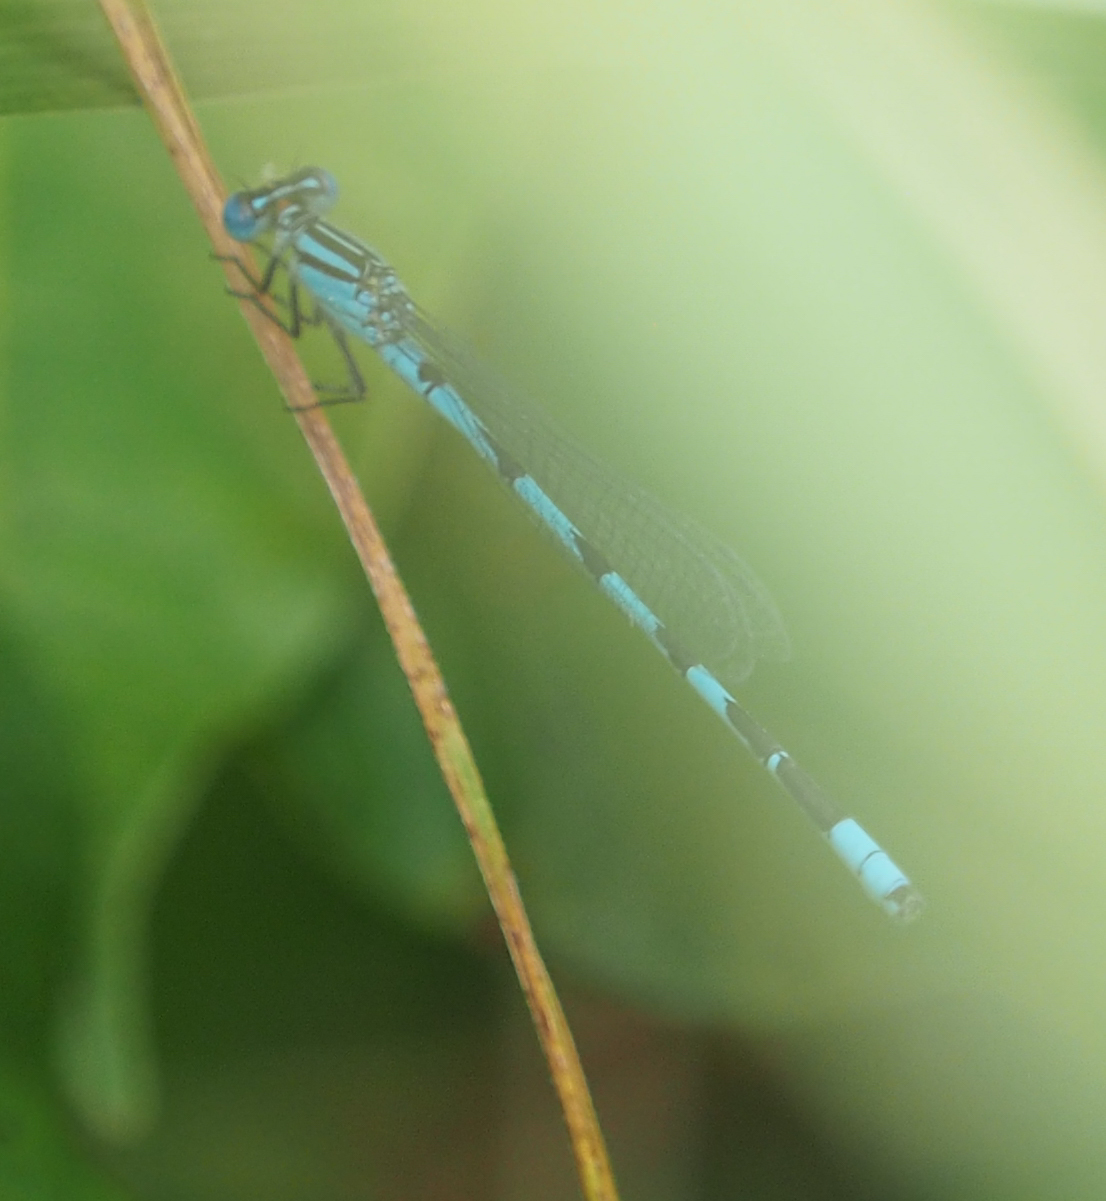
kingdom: Animalia
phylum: Arthropoda
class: Insecta
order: Odonata
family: Coenagrionidae
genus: Enallagma
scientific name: Enallagma durum
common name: Big bluet
